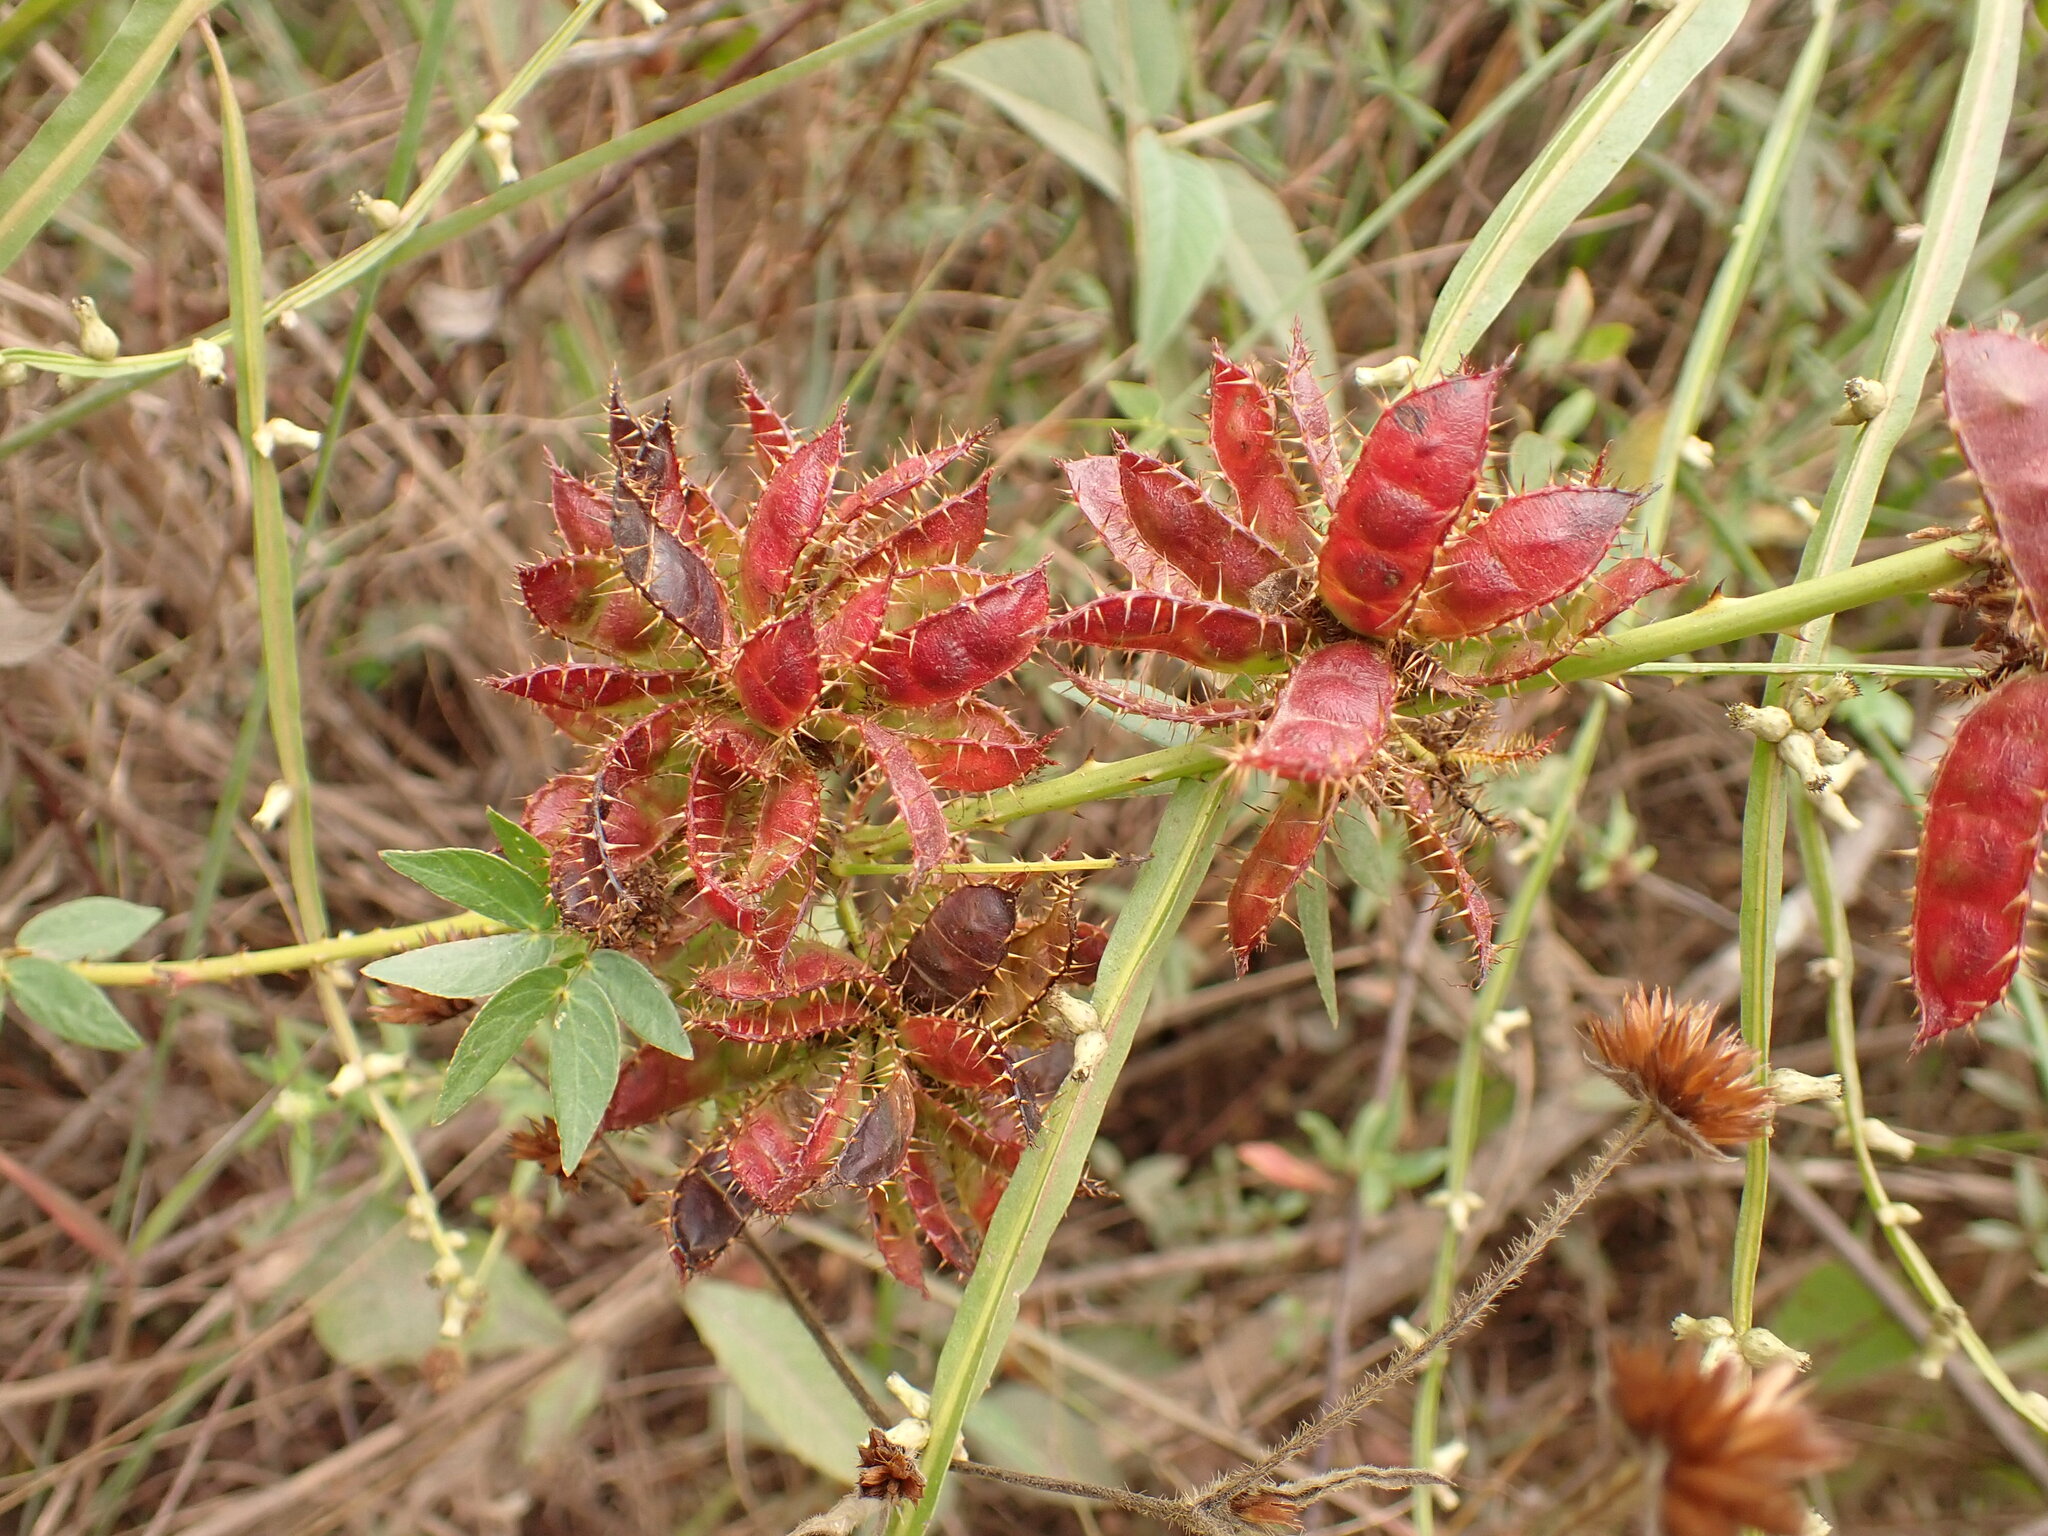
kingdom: Plantae
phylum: Tracheophyta
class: Magnoliopsida
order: Fabales
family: Fabaceae
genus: Mimosa
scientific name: Mimosa velloziana
